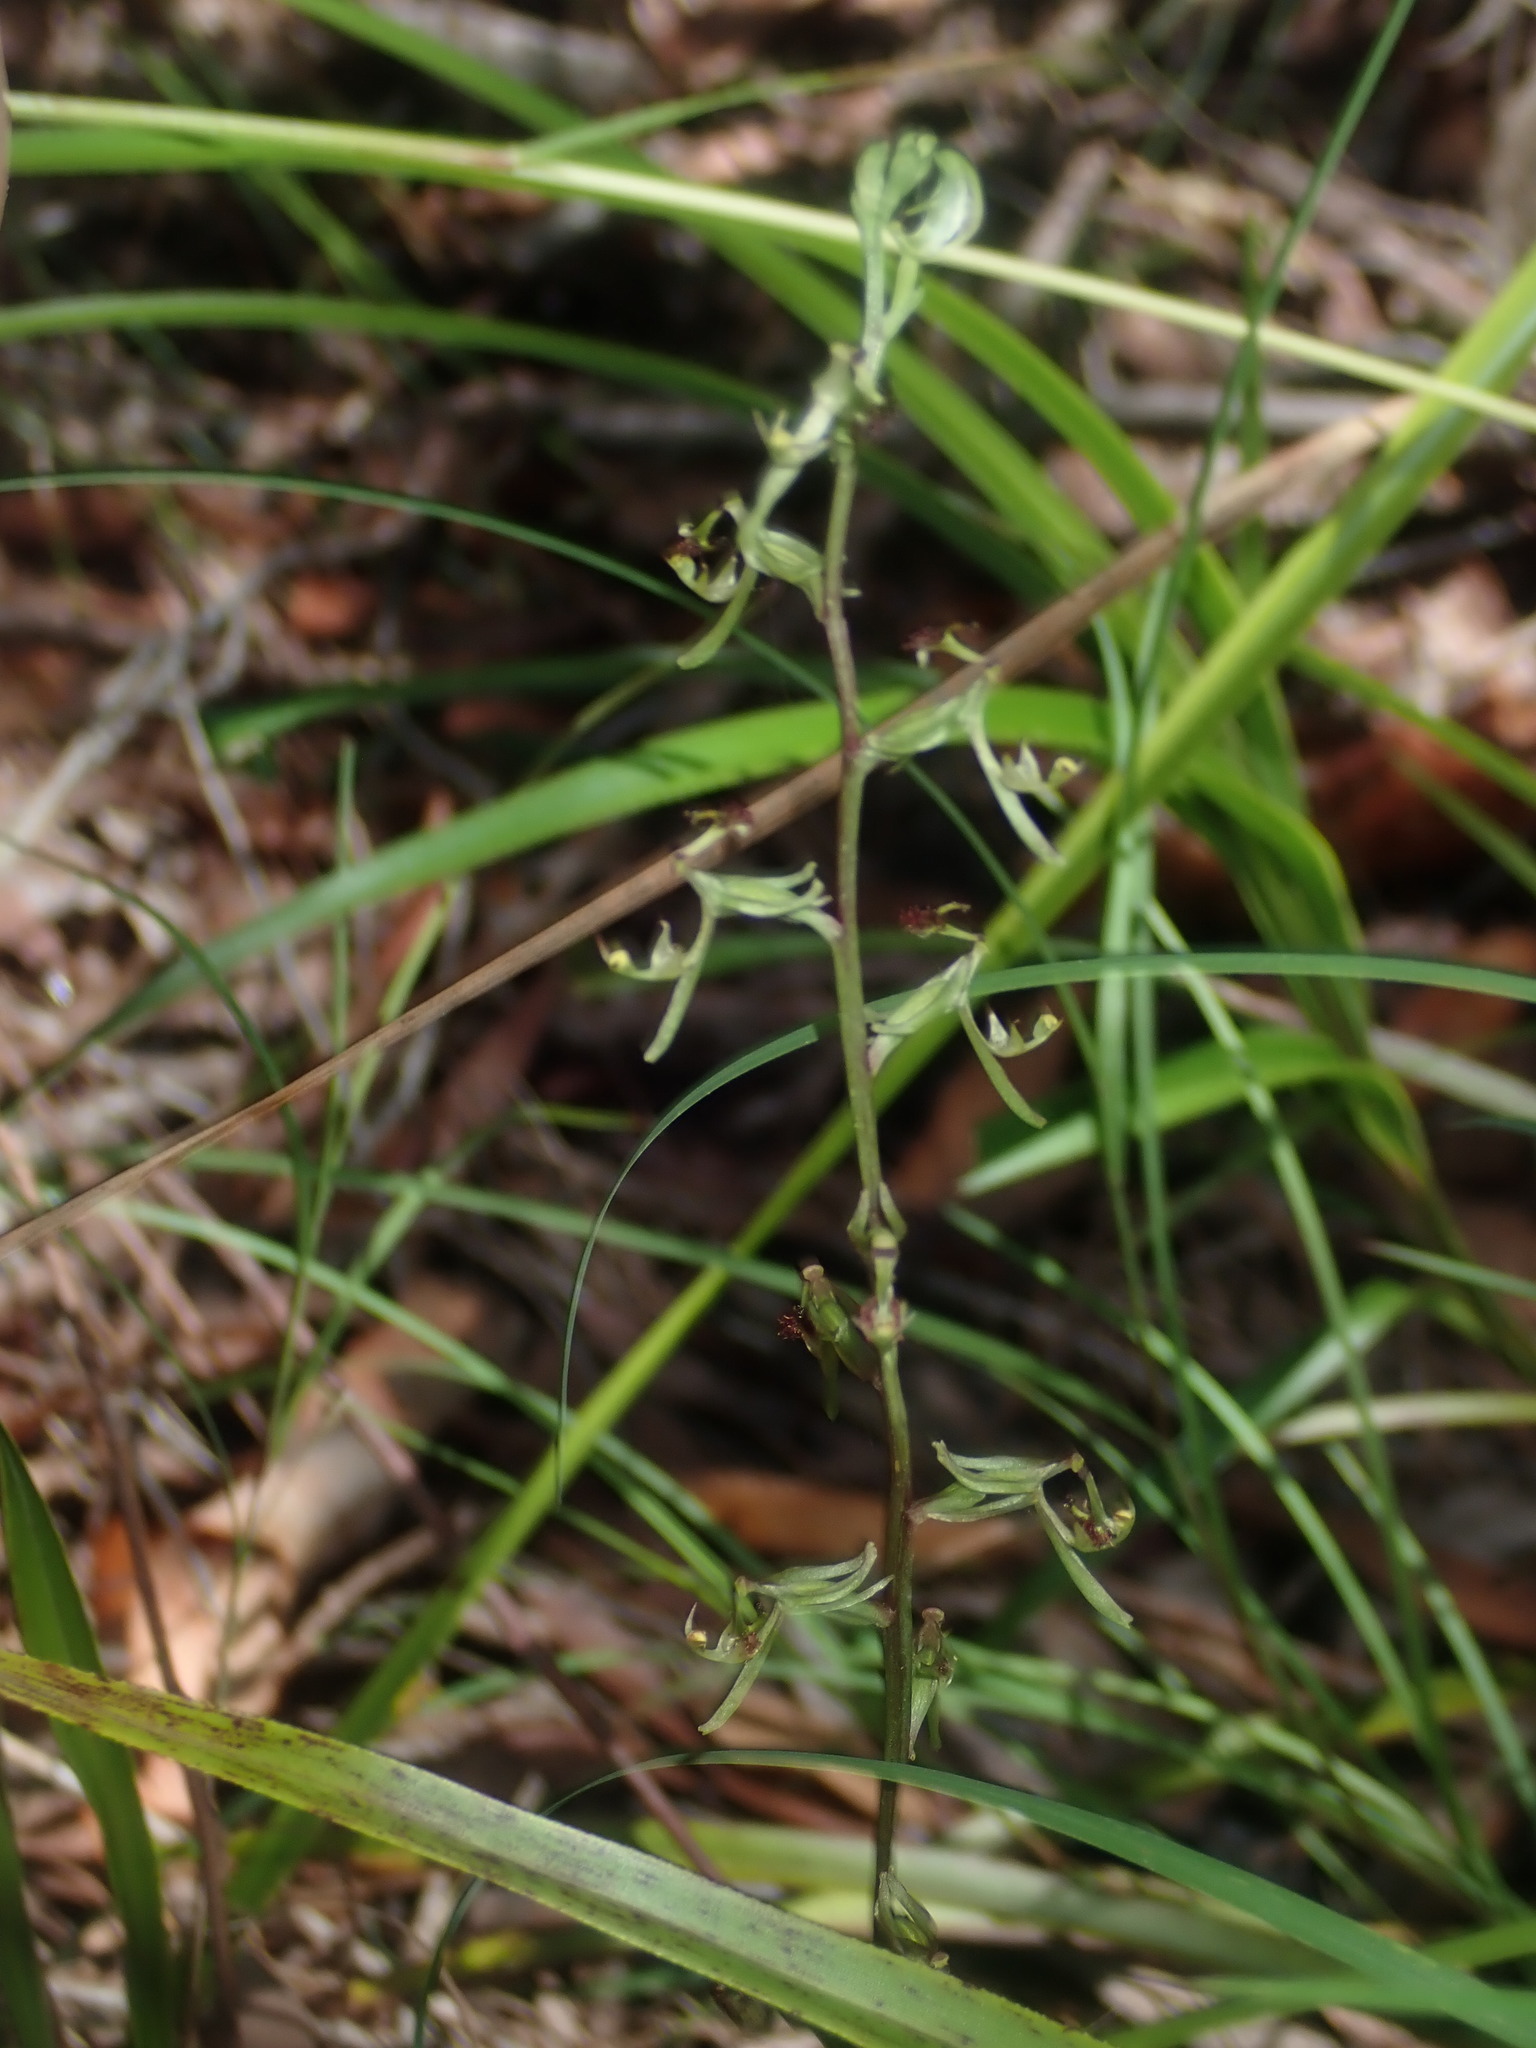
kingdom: Plantae
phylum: Tracheophyta
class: Liliopsida
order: Asparagales
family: Orchidaceae
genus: Arthrochilus
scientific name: Arthrochilus prolixus
